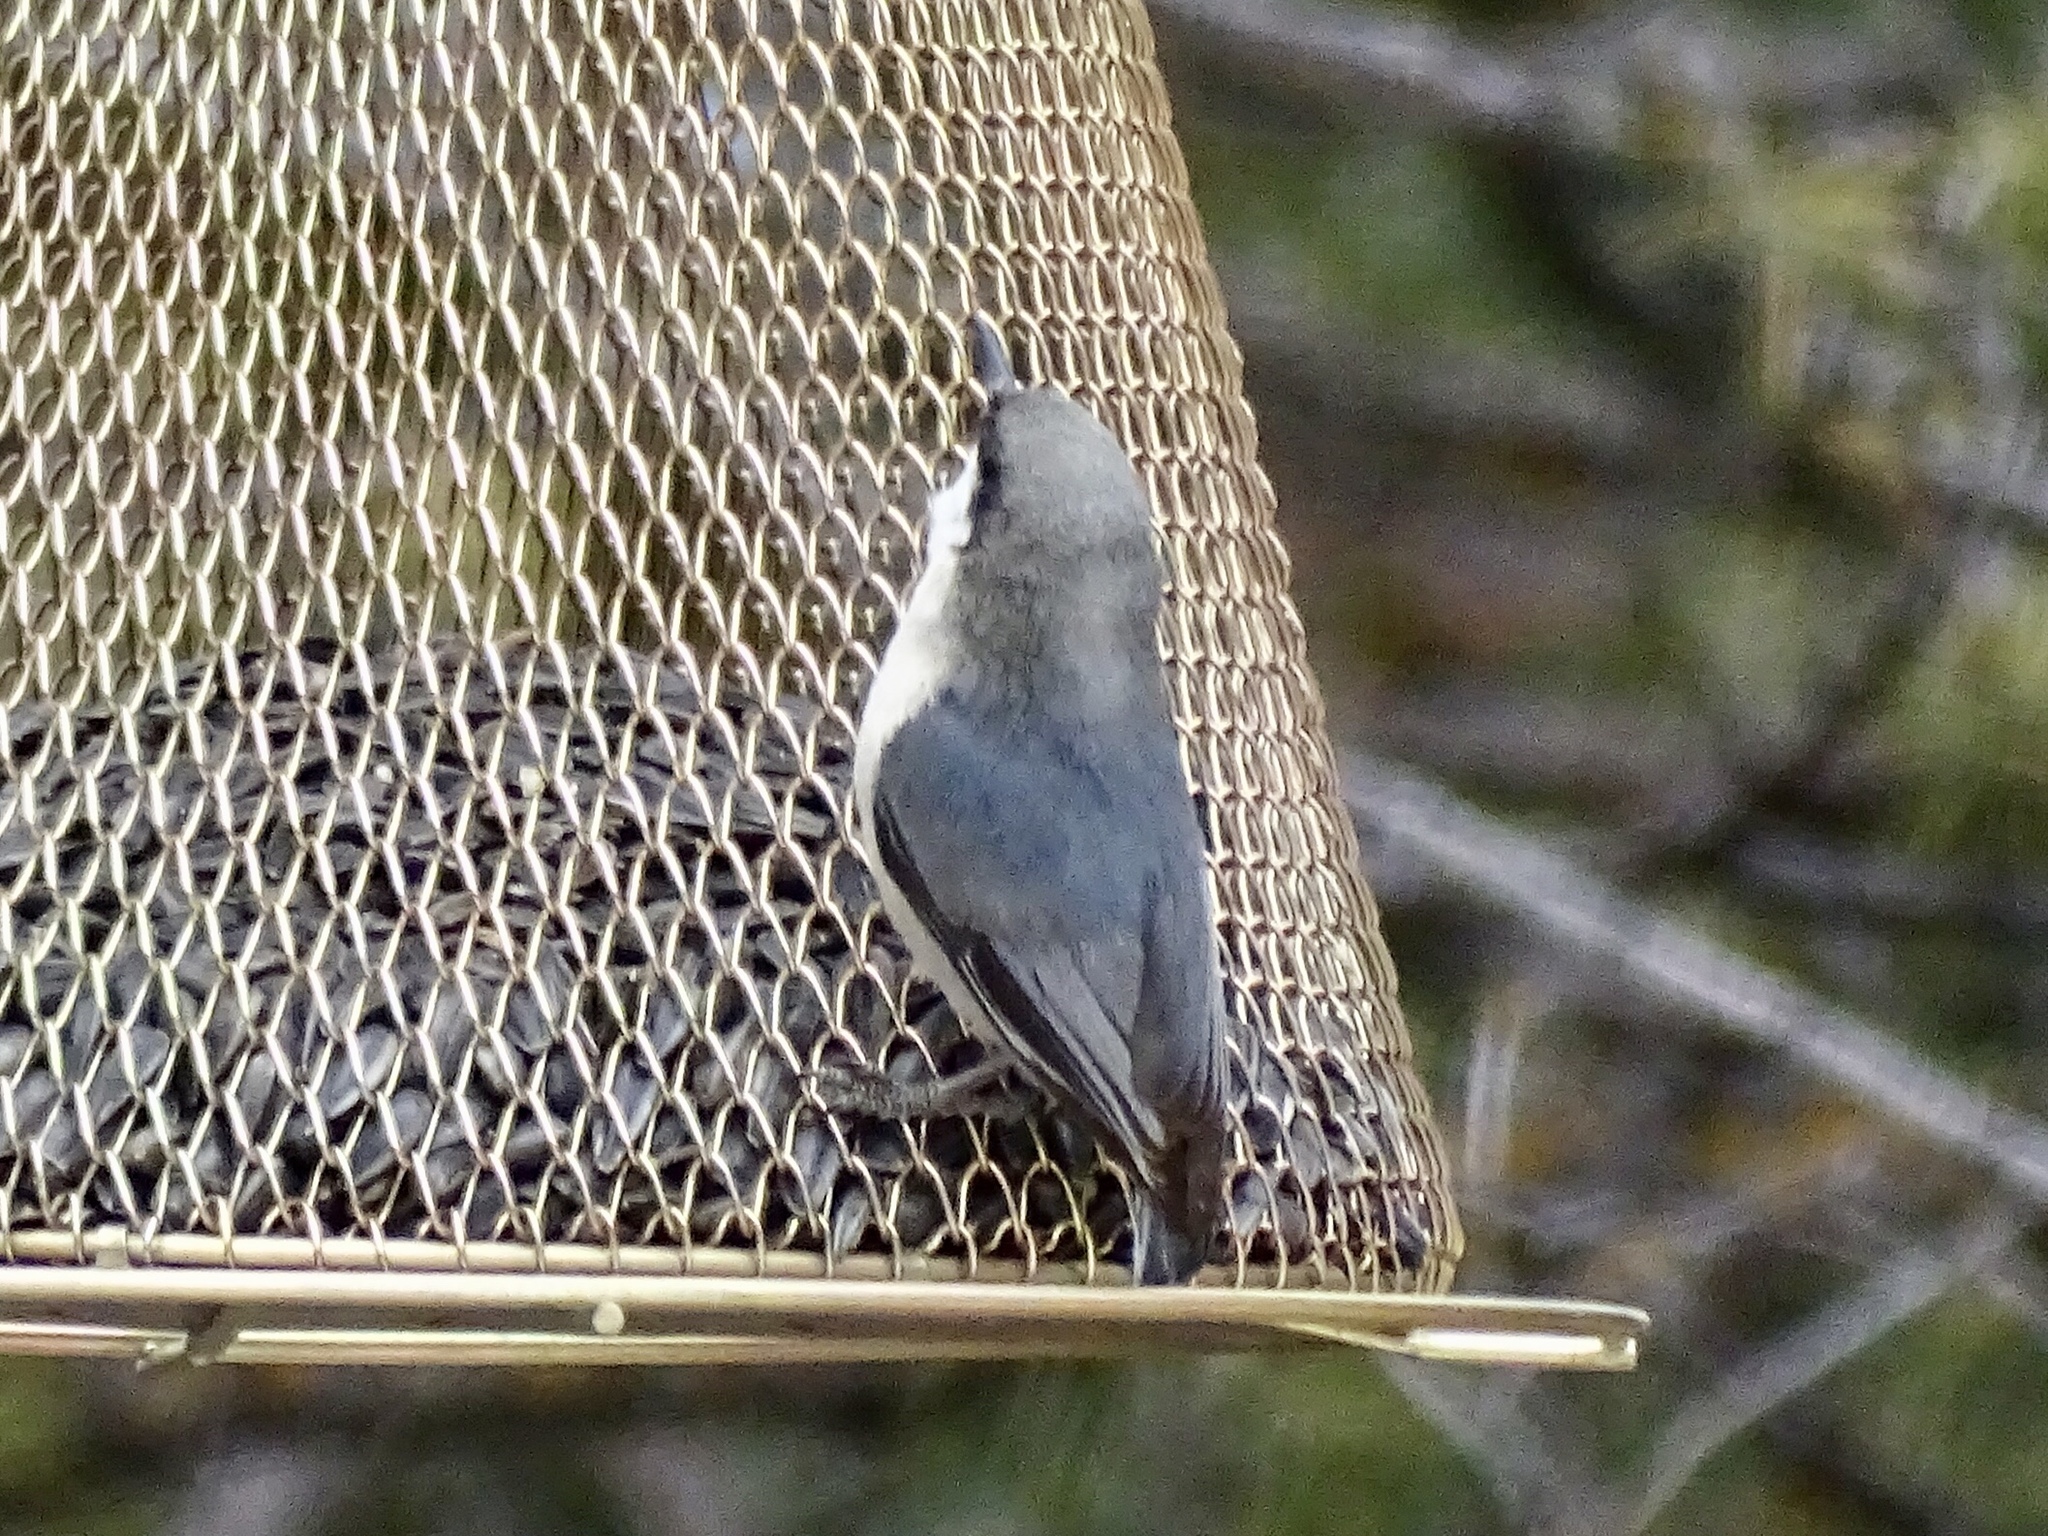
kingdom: Animalia
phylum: Chordata
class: Aves
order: Passeriformes
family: Sittidae
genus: Sitta
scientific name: Sitta pygmaea
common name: Pygmy nuthatch
